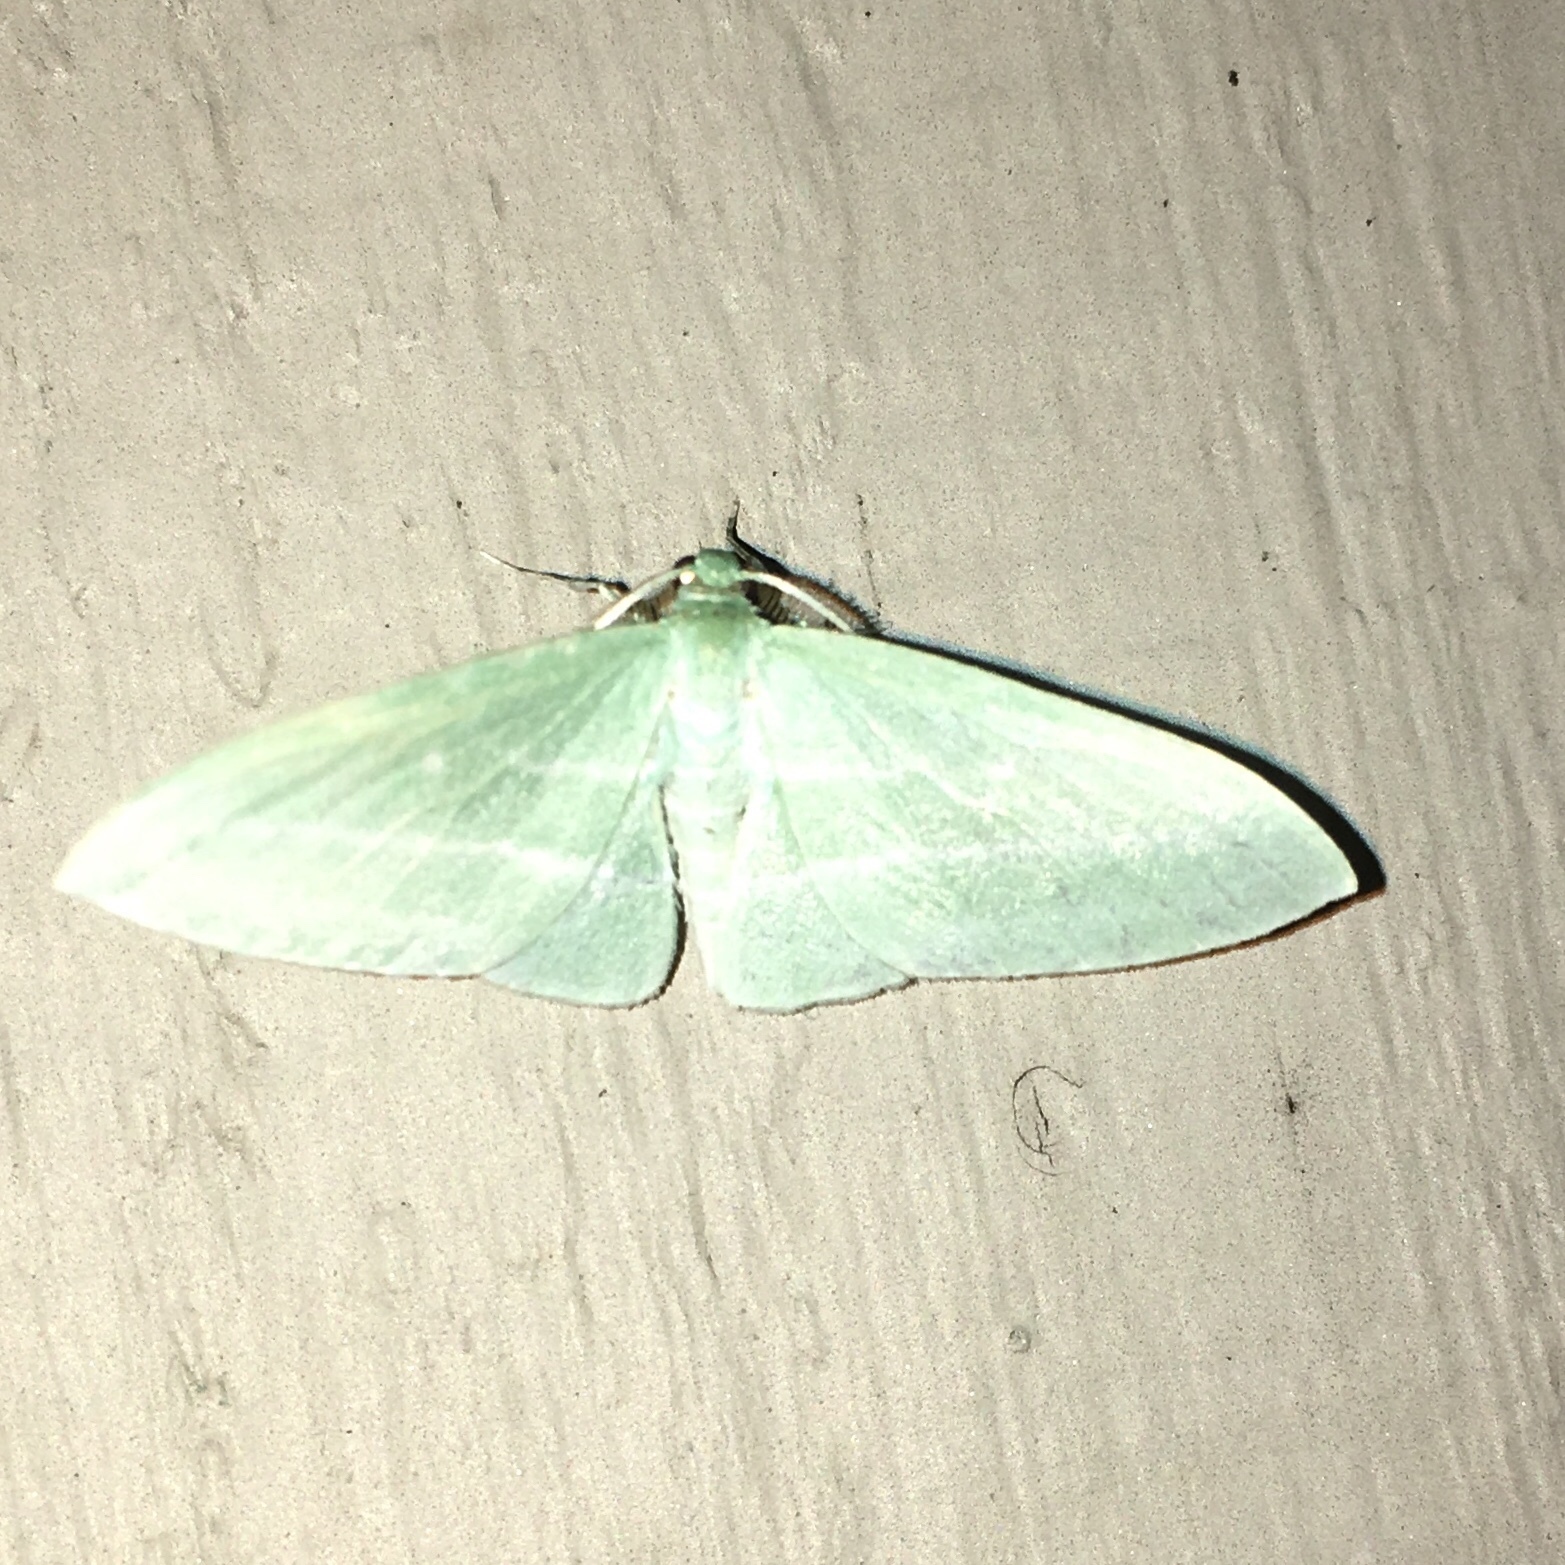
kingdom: Animalia
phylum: Arthropoda
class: Insecta
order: Lepidoptera
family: Geometridae
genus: Dyspteris
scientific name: Dyspteris abortivaria
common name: Bad-wing
